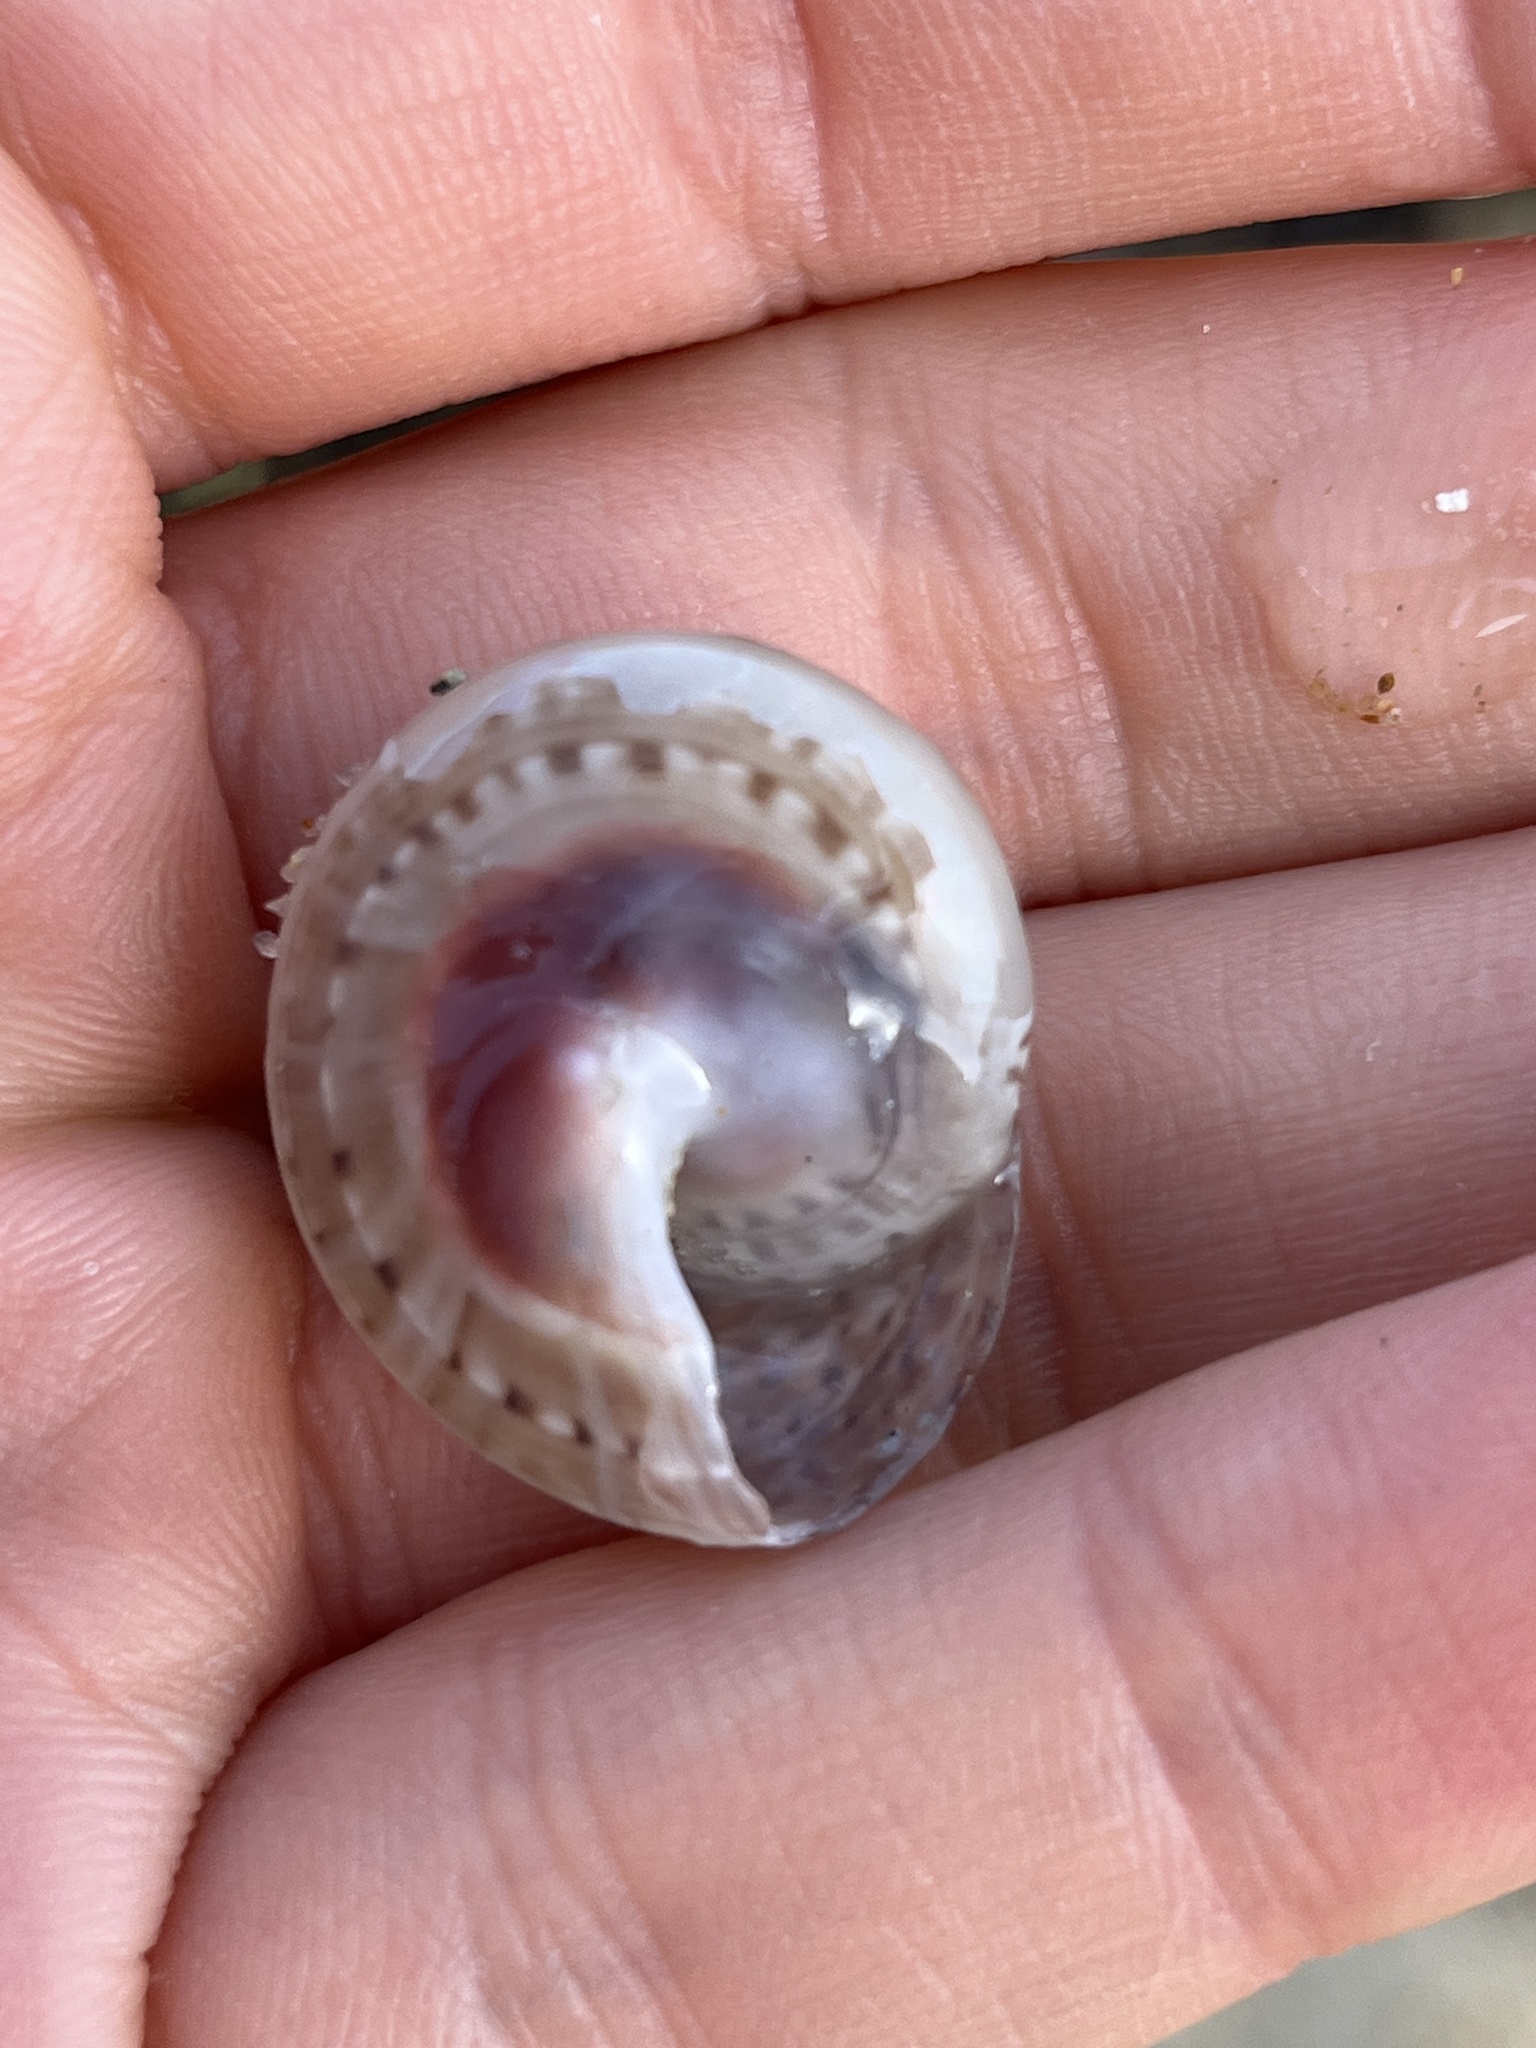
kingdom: Animalia
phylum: Mollusca
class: Gastropoda
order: Trochida
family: Trochidae
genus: Umbonium
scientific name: Umbonium costatum
